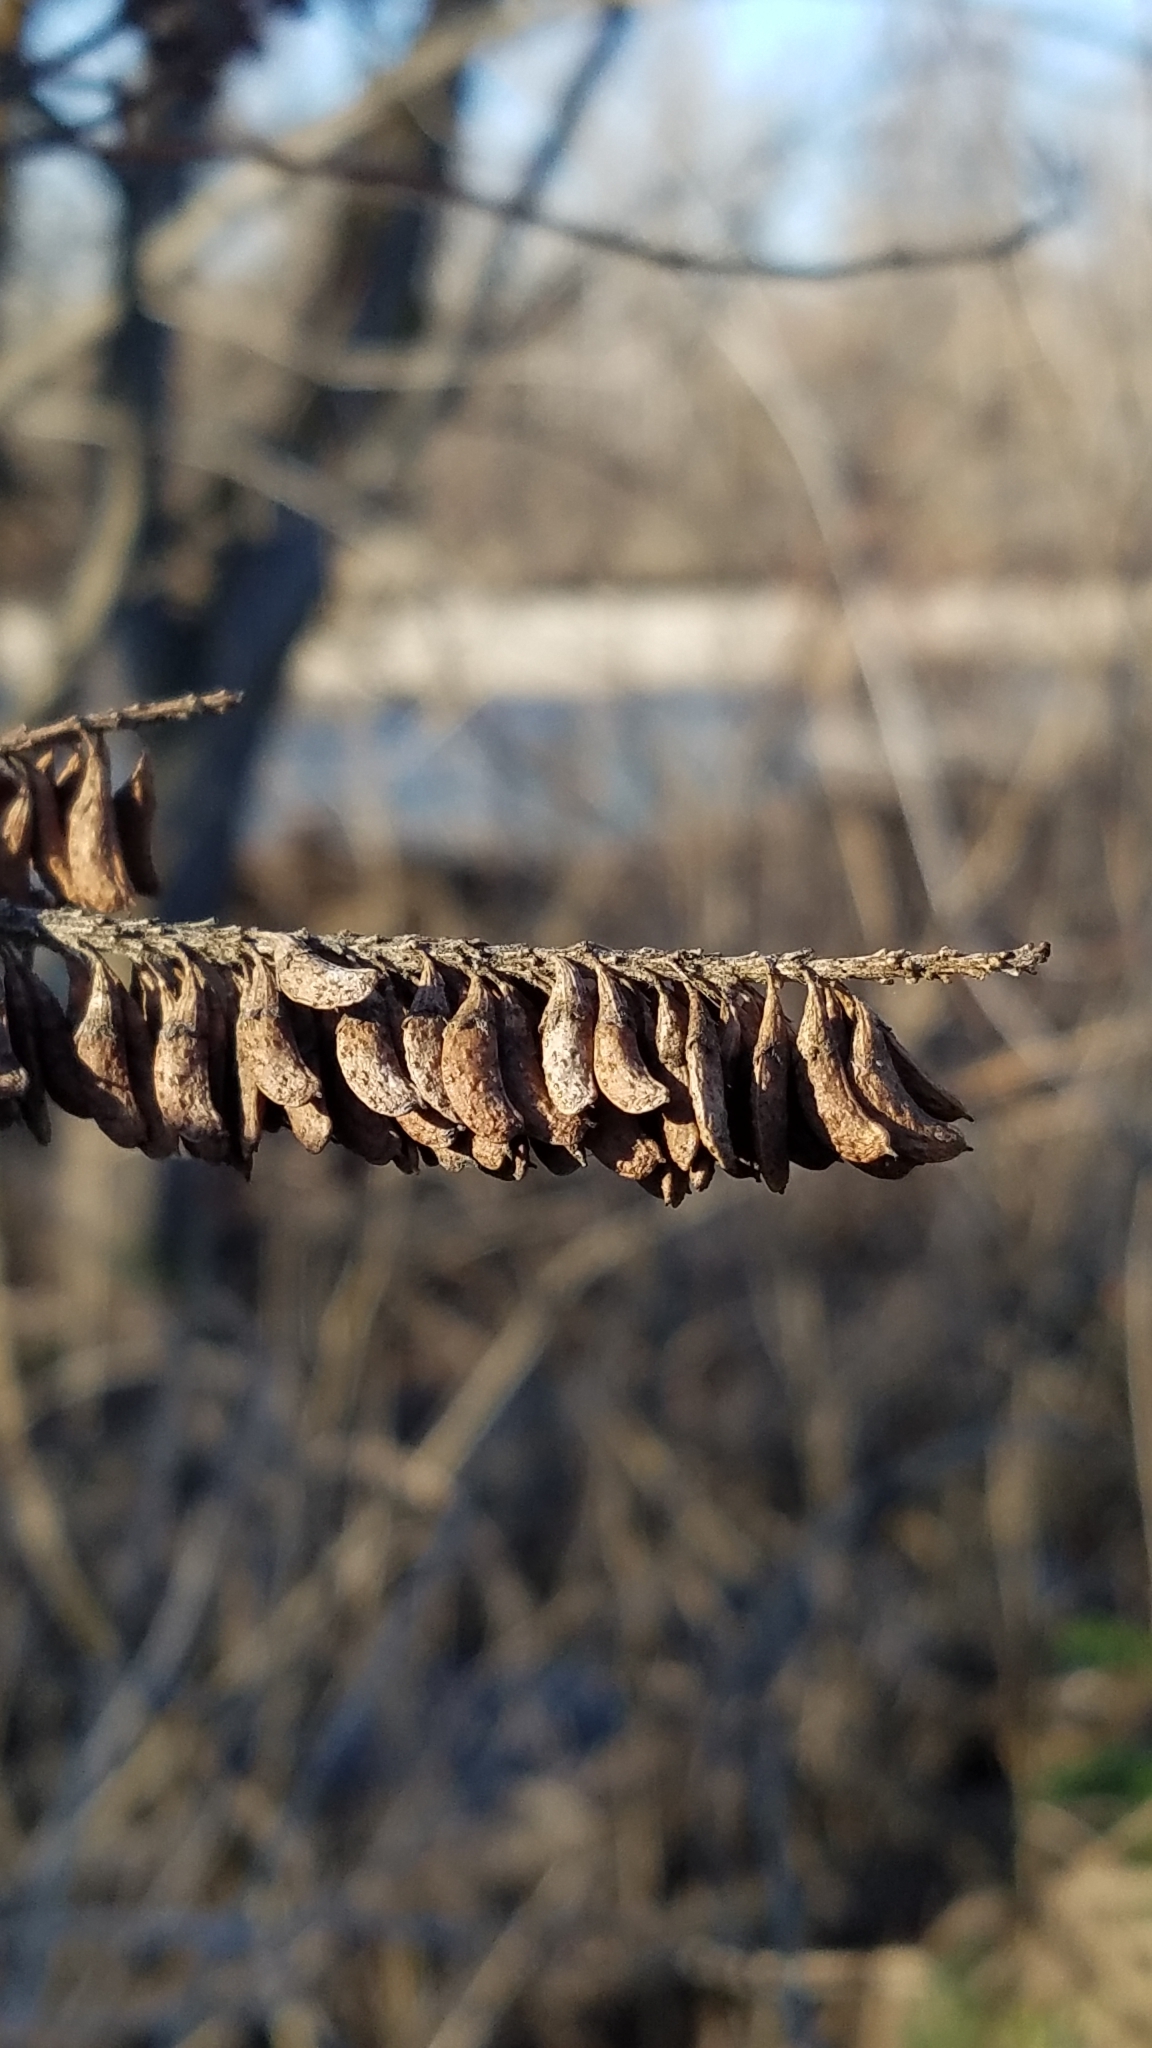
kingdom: Plantae
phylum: Tracheophyta
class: Magnoliopsida
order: Fabales
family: Fabaceae
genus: Amorpha
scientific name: Amorpha fruticosa
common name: False indigo
